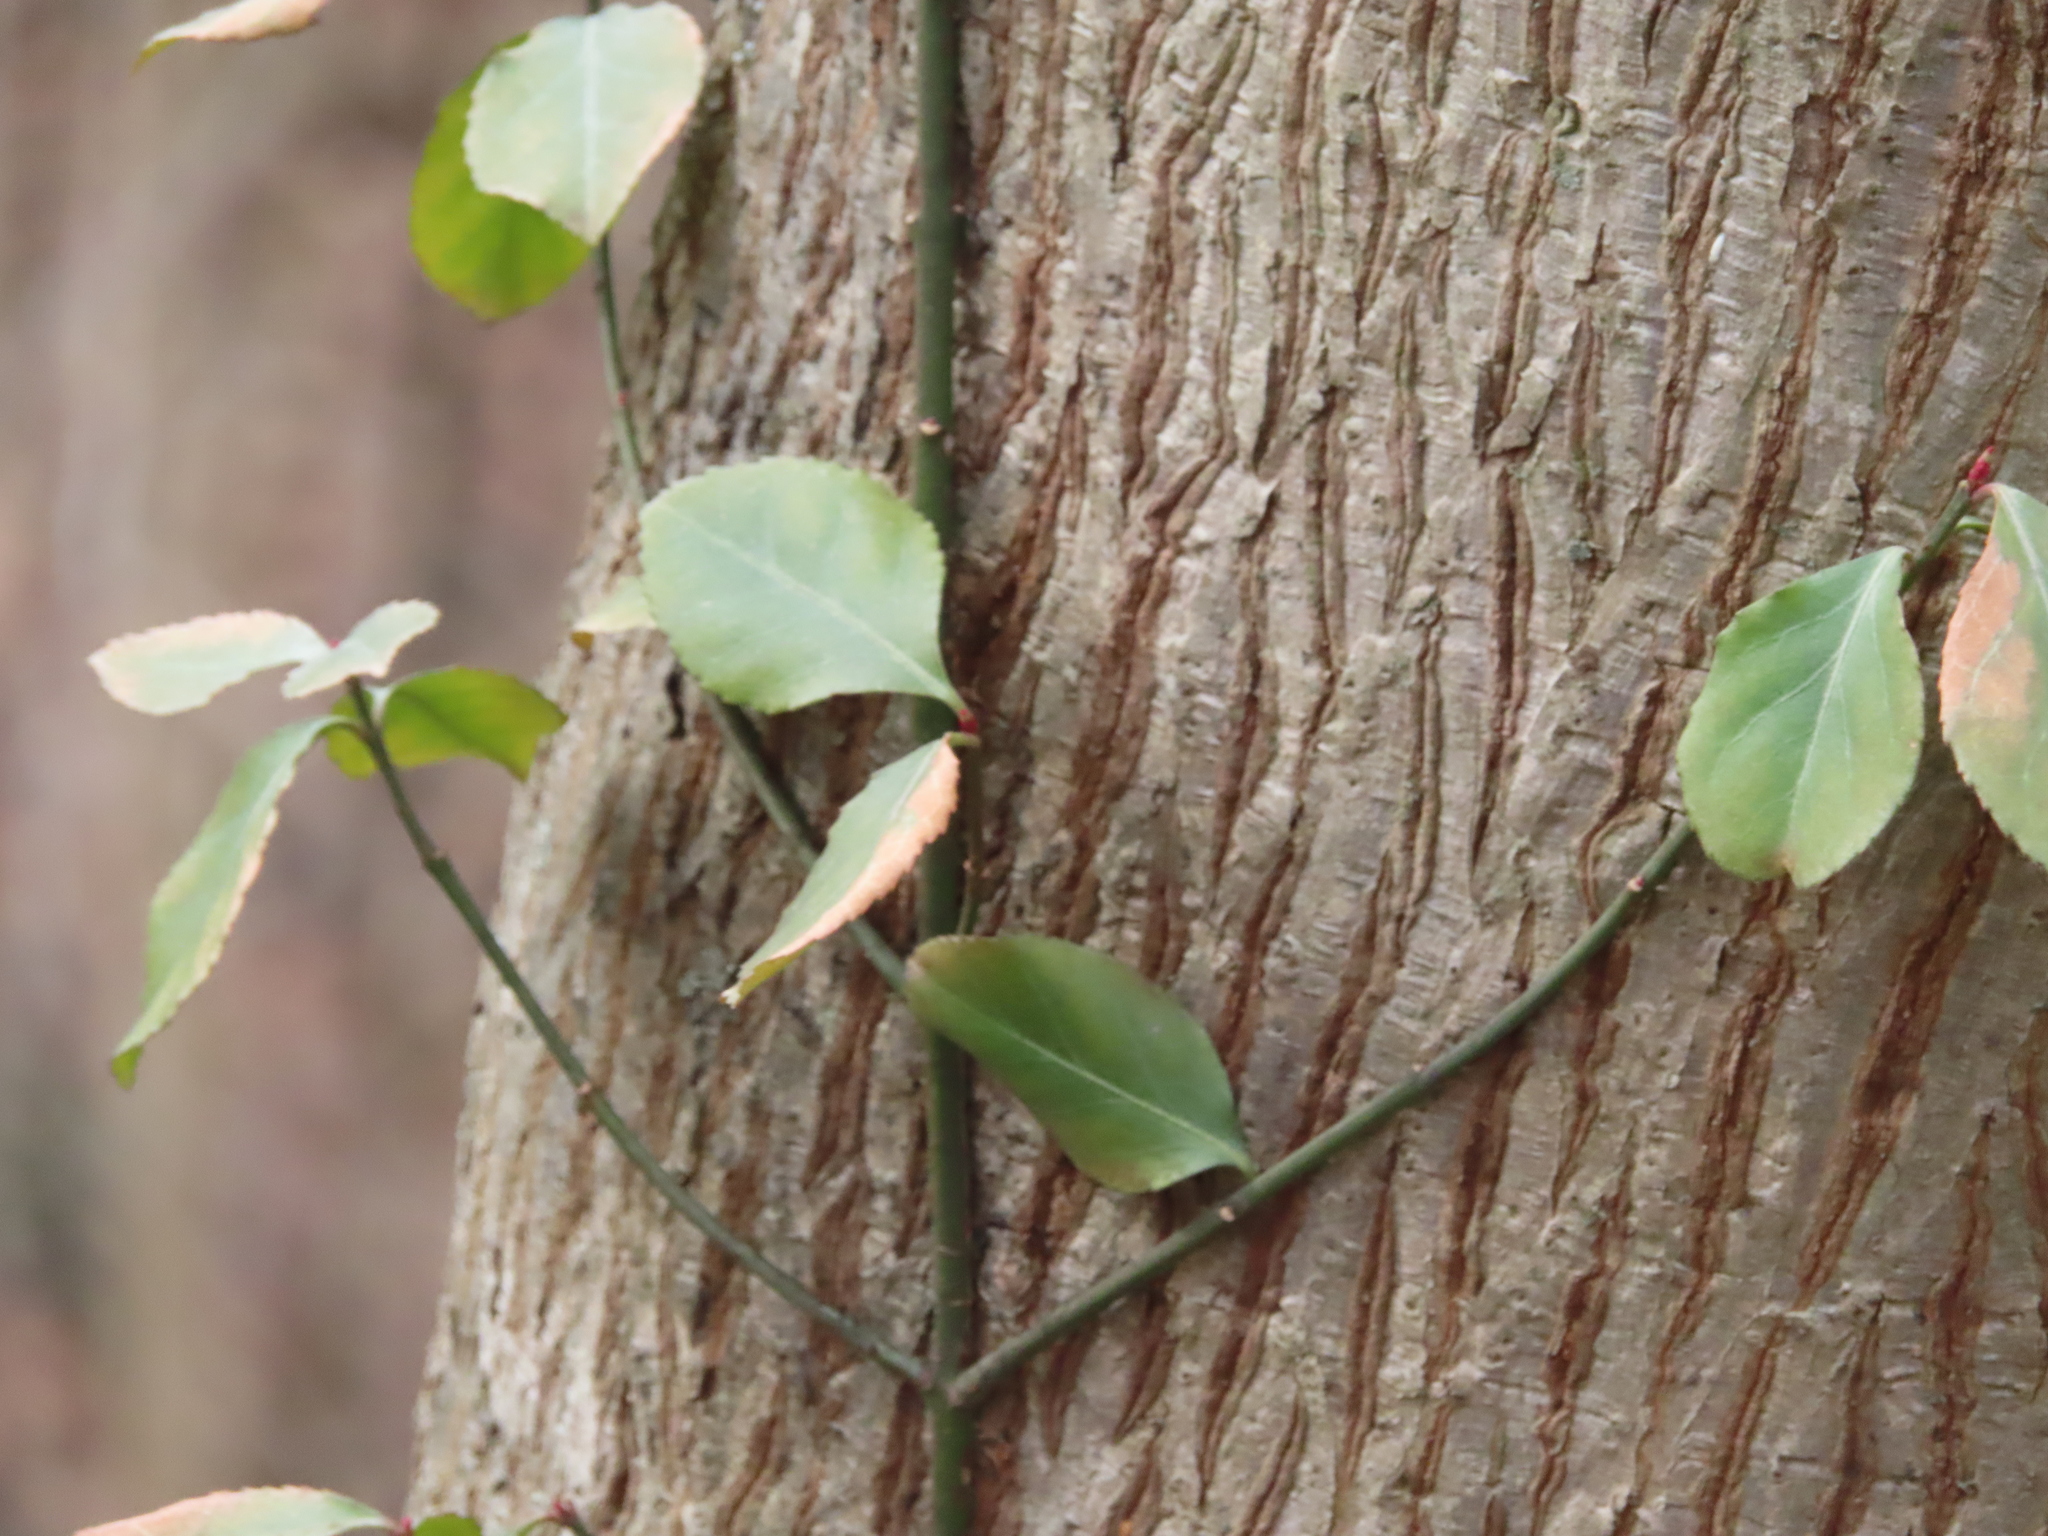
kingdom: Plantae
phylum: Tracheophyta
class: Magnoliopsida
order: Celastrales
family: Celastraceae
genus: Euonymus
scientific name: Euonymus fortunei
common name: Climbing euonymus
